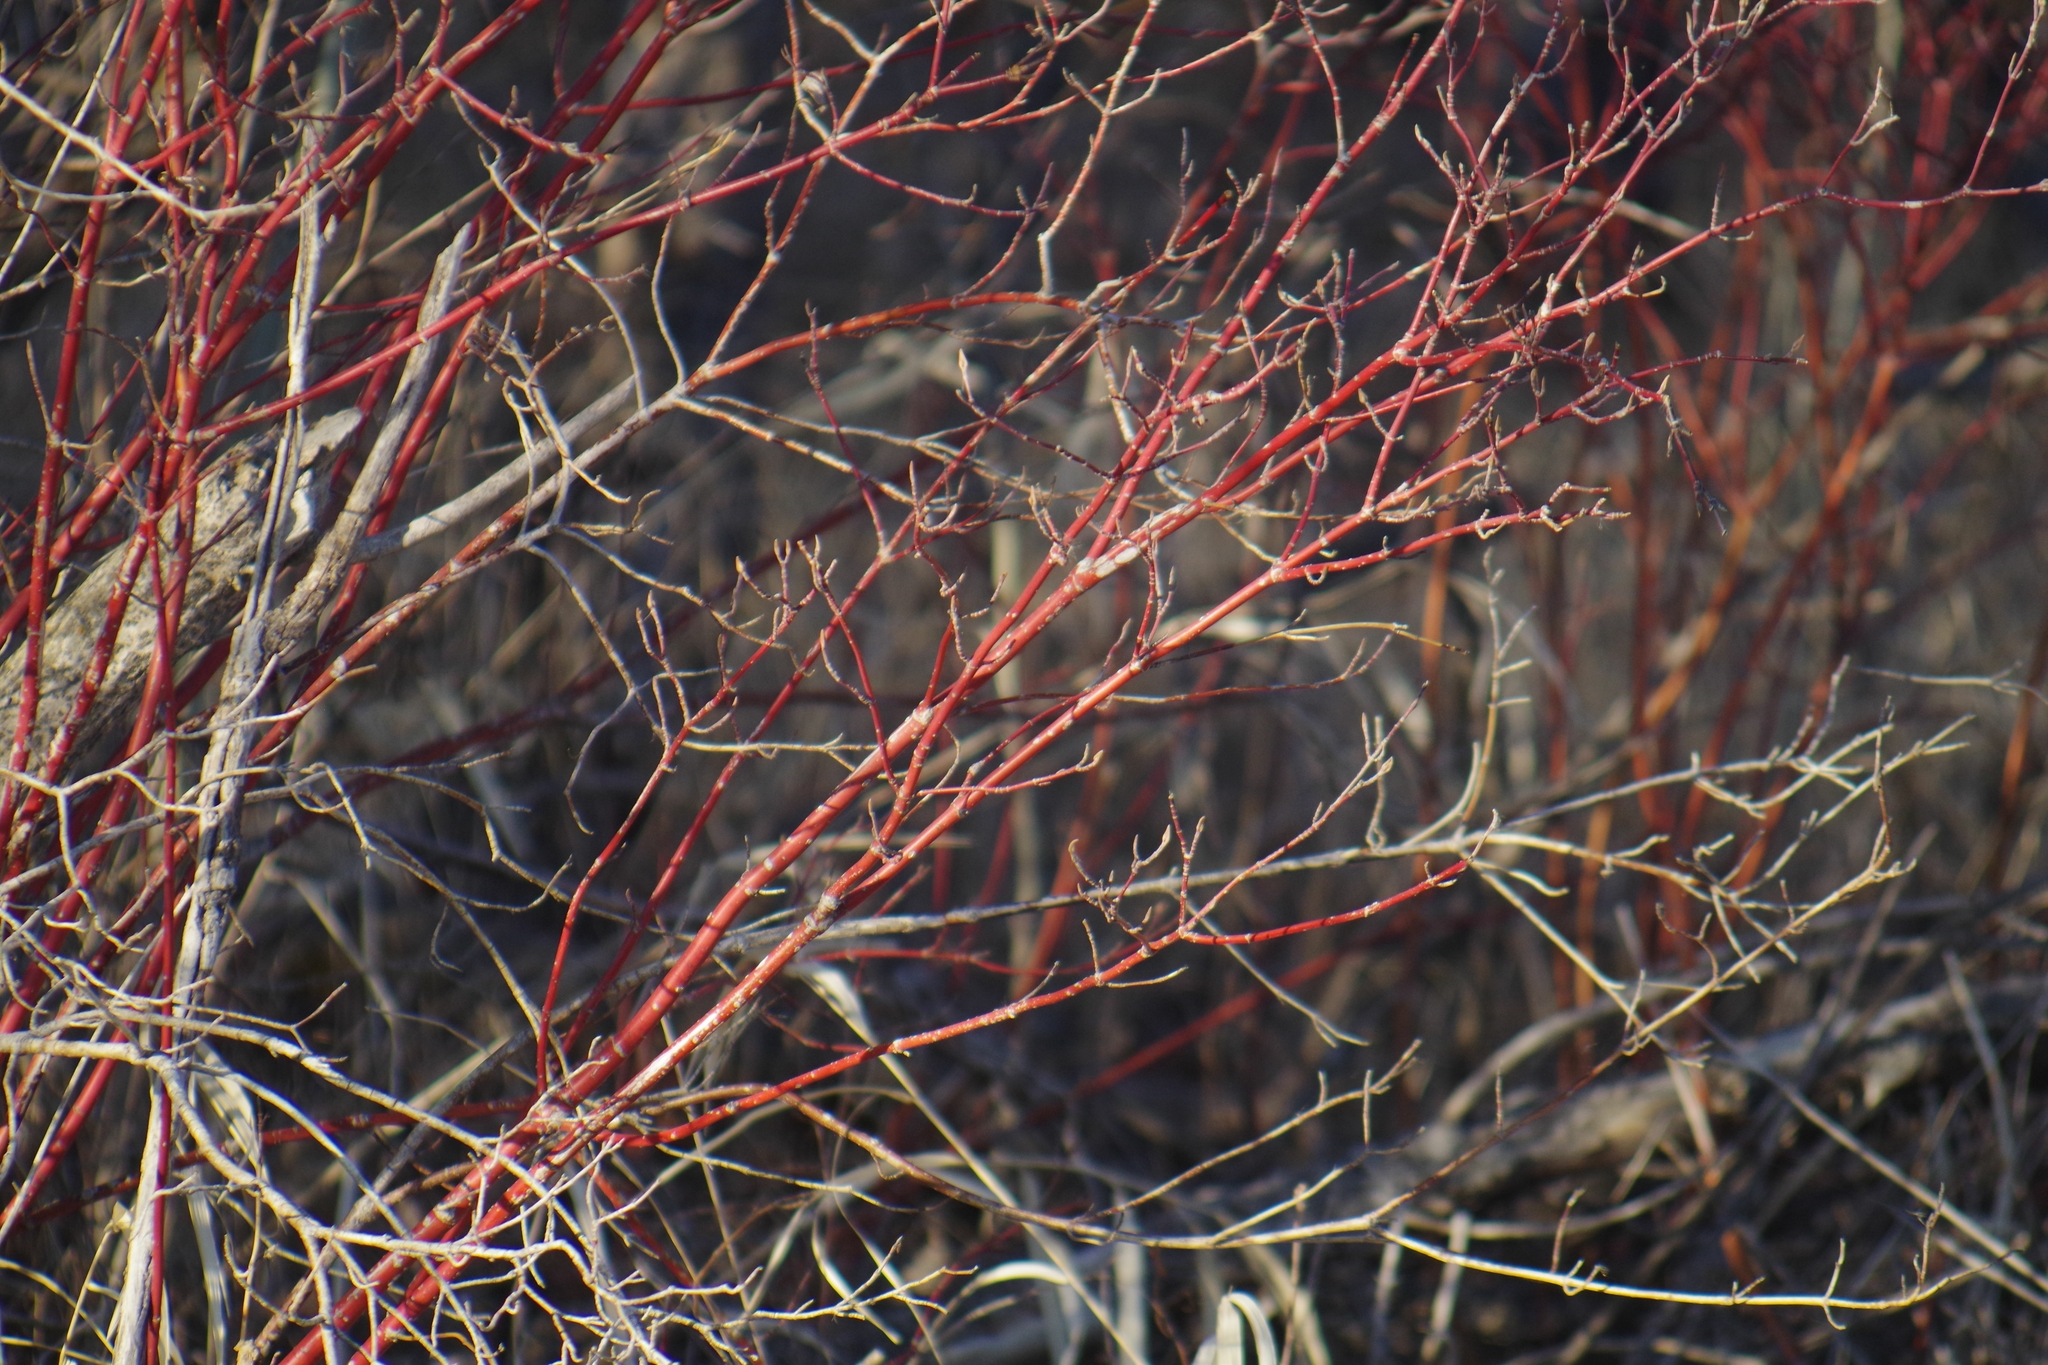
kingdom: Plantae
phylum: Tracheophyta
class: Magnoliopsida
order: Cornales
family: Cornaceae
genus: Cornus
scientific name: Cornus sericea
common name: Red-osier dogwood
